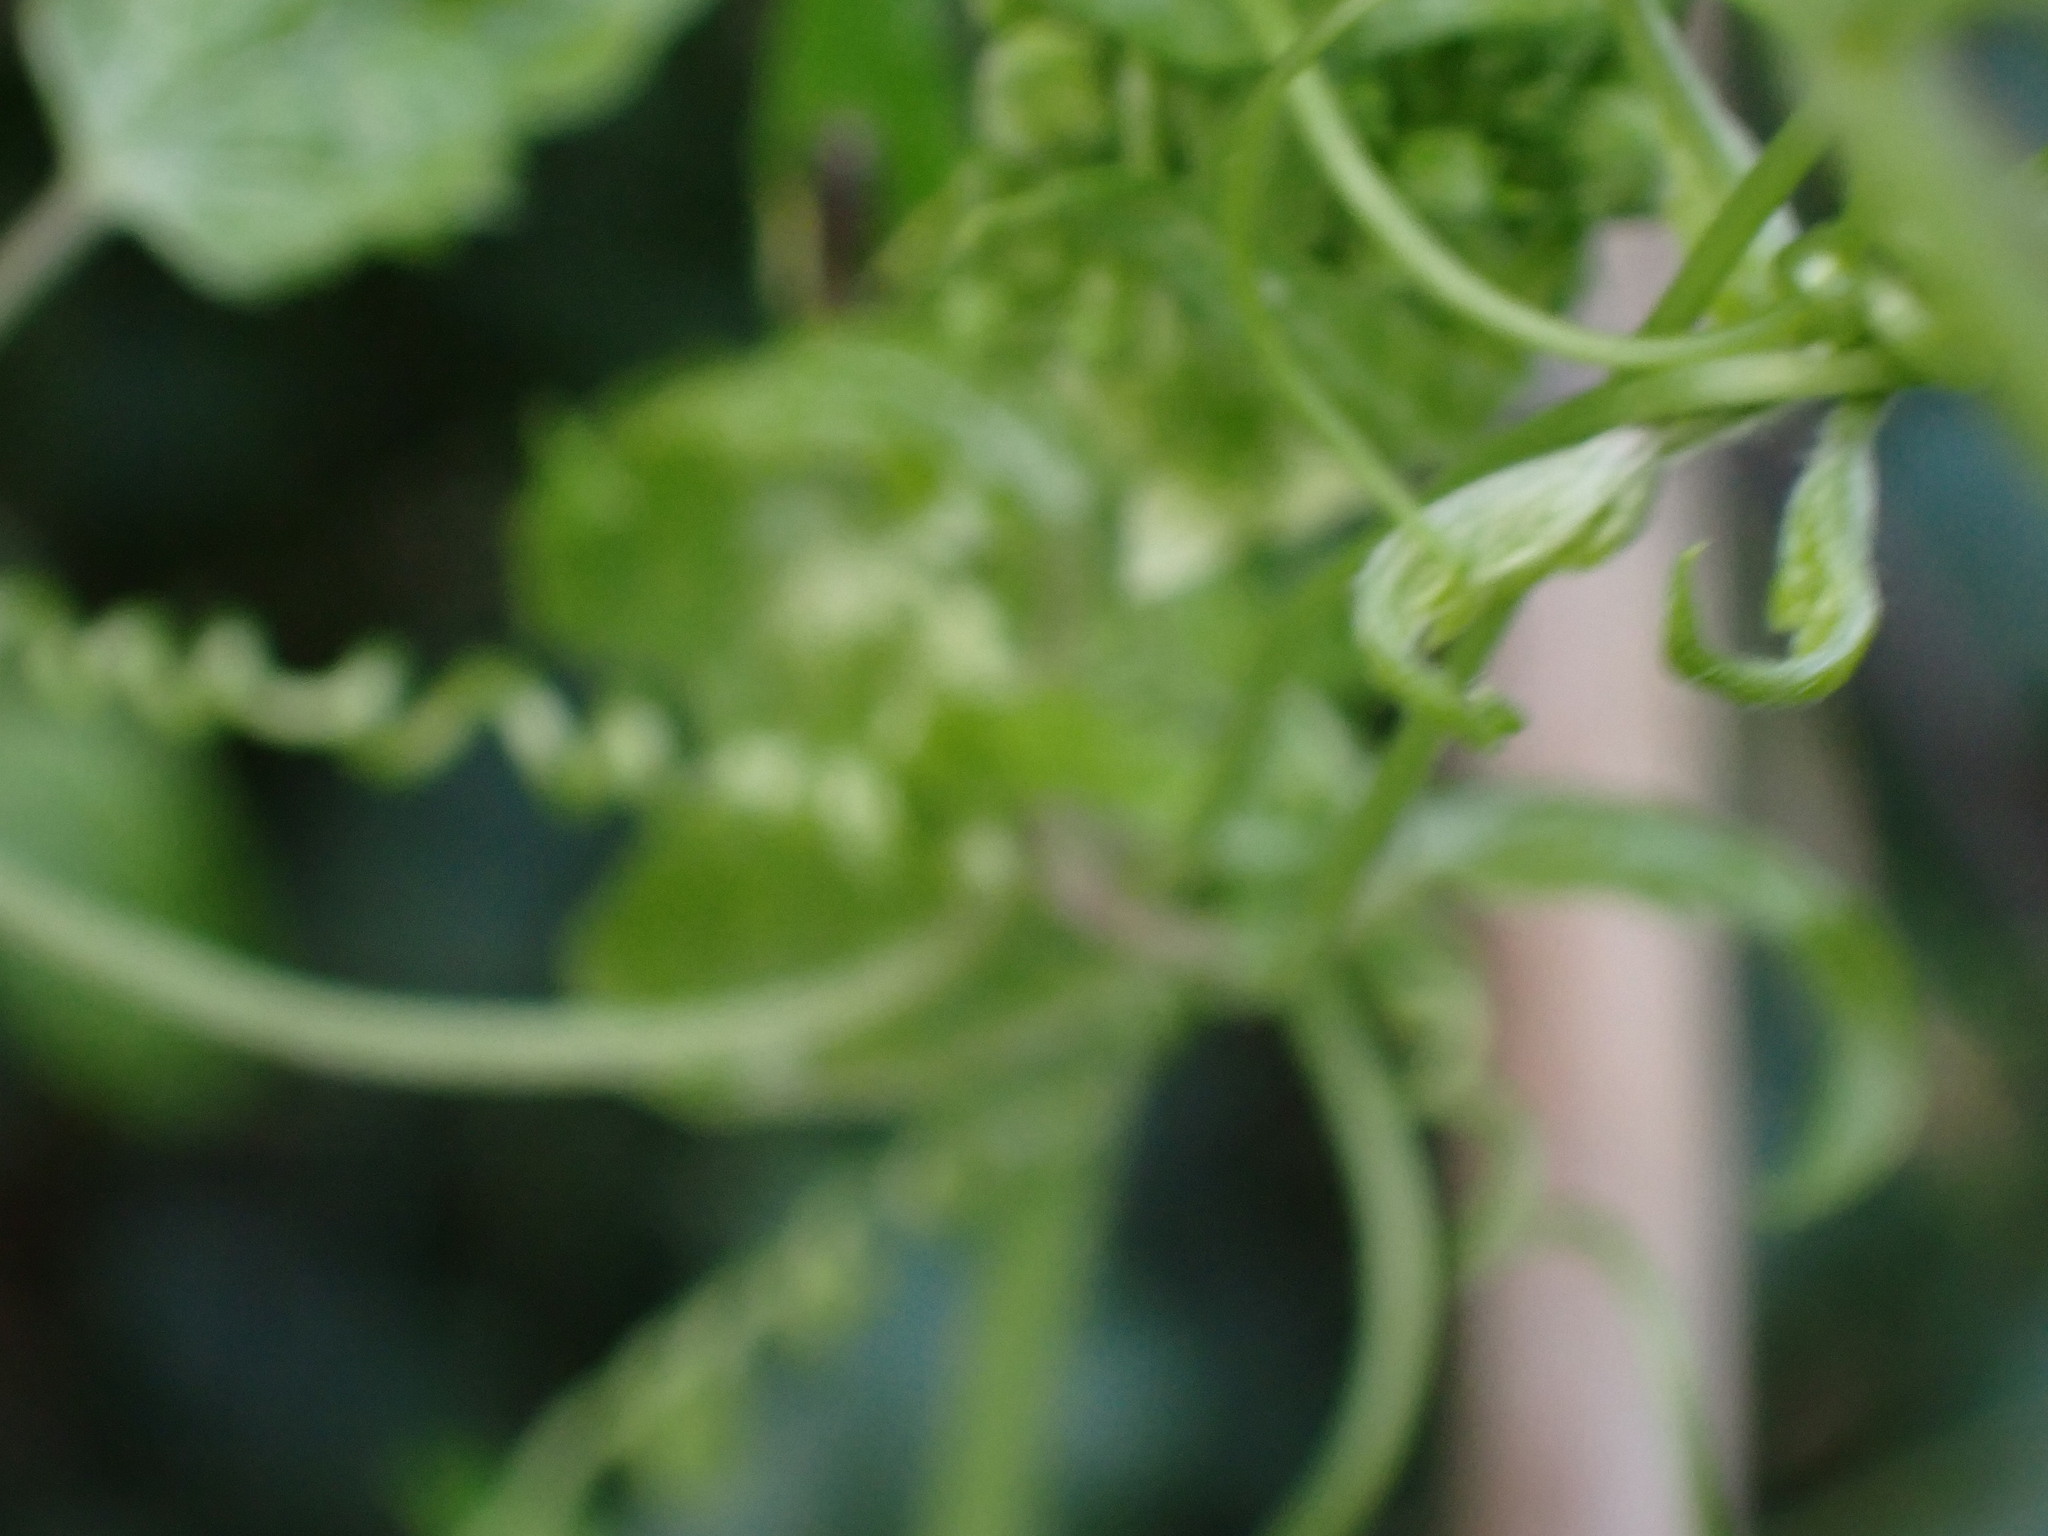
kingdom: Plantae
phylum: Tracheophyta
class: Magnoliopsida
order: Cucurbitales
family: Cucurbitaceae
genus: Bryonia
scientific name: Bryonia dioica
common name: White bryony
